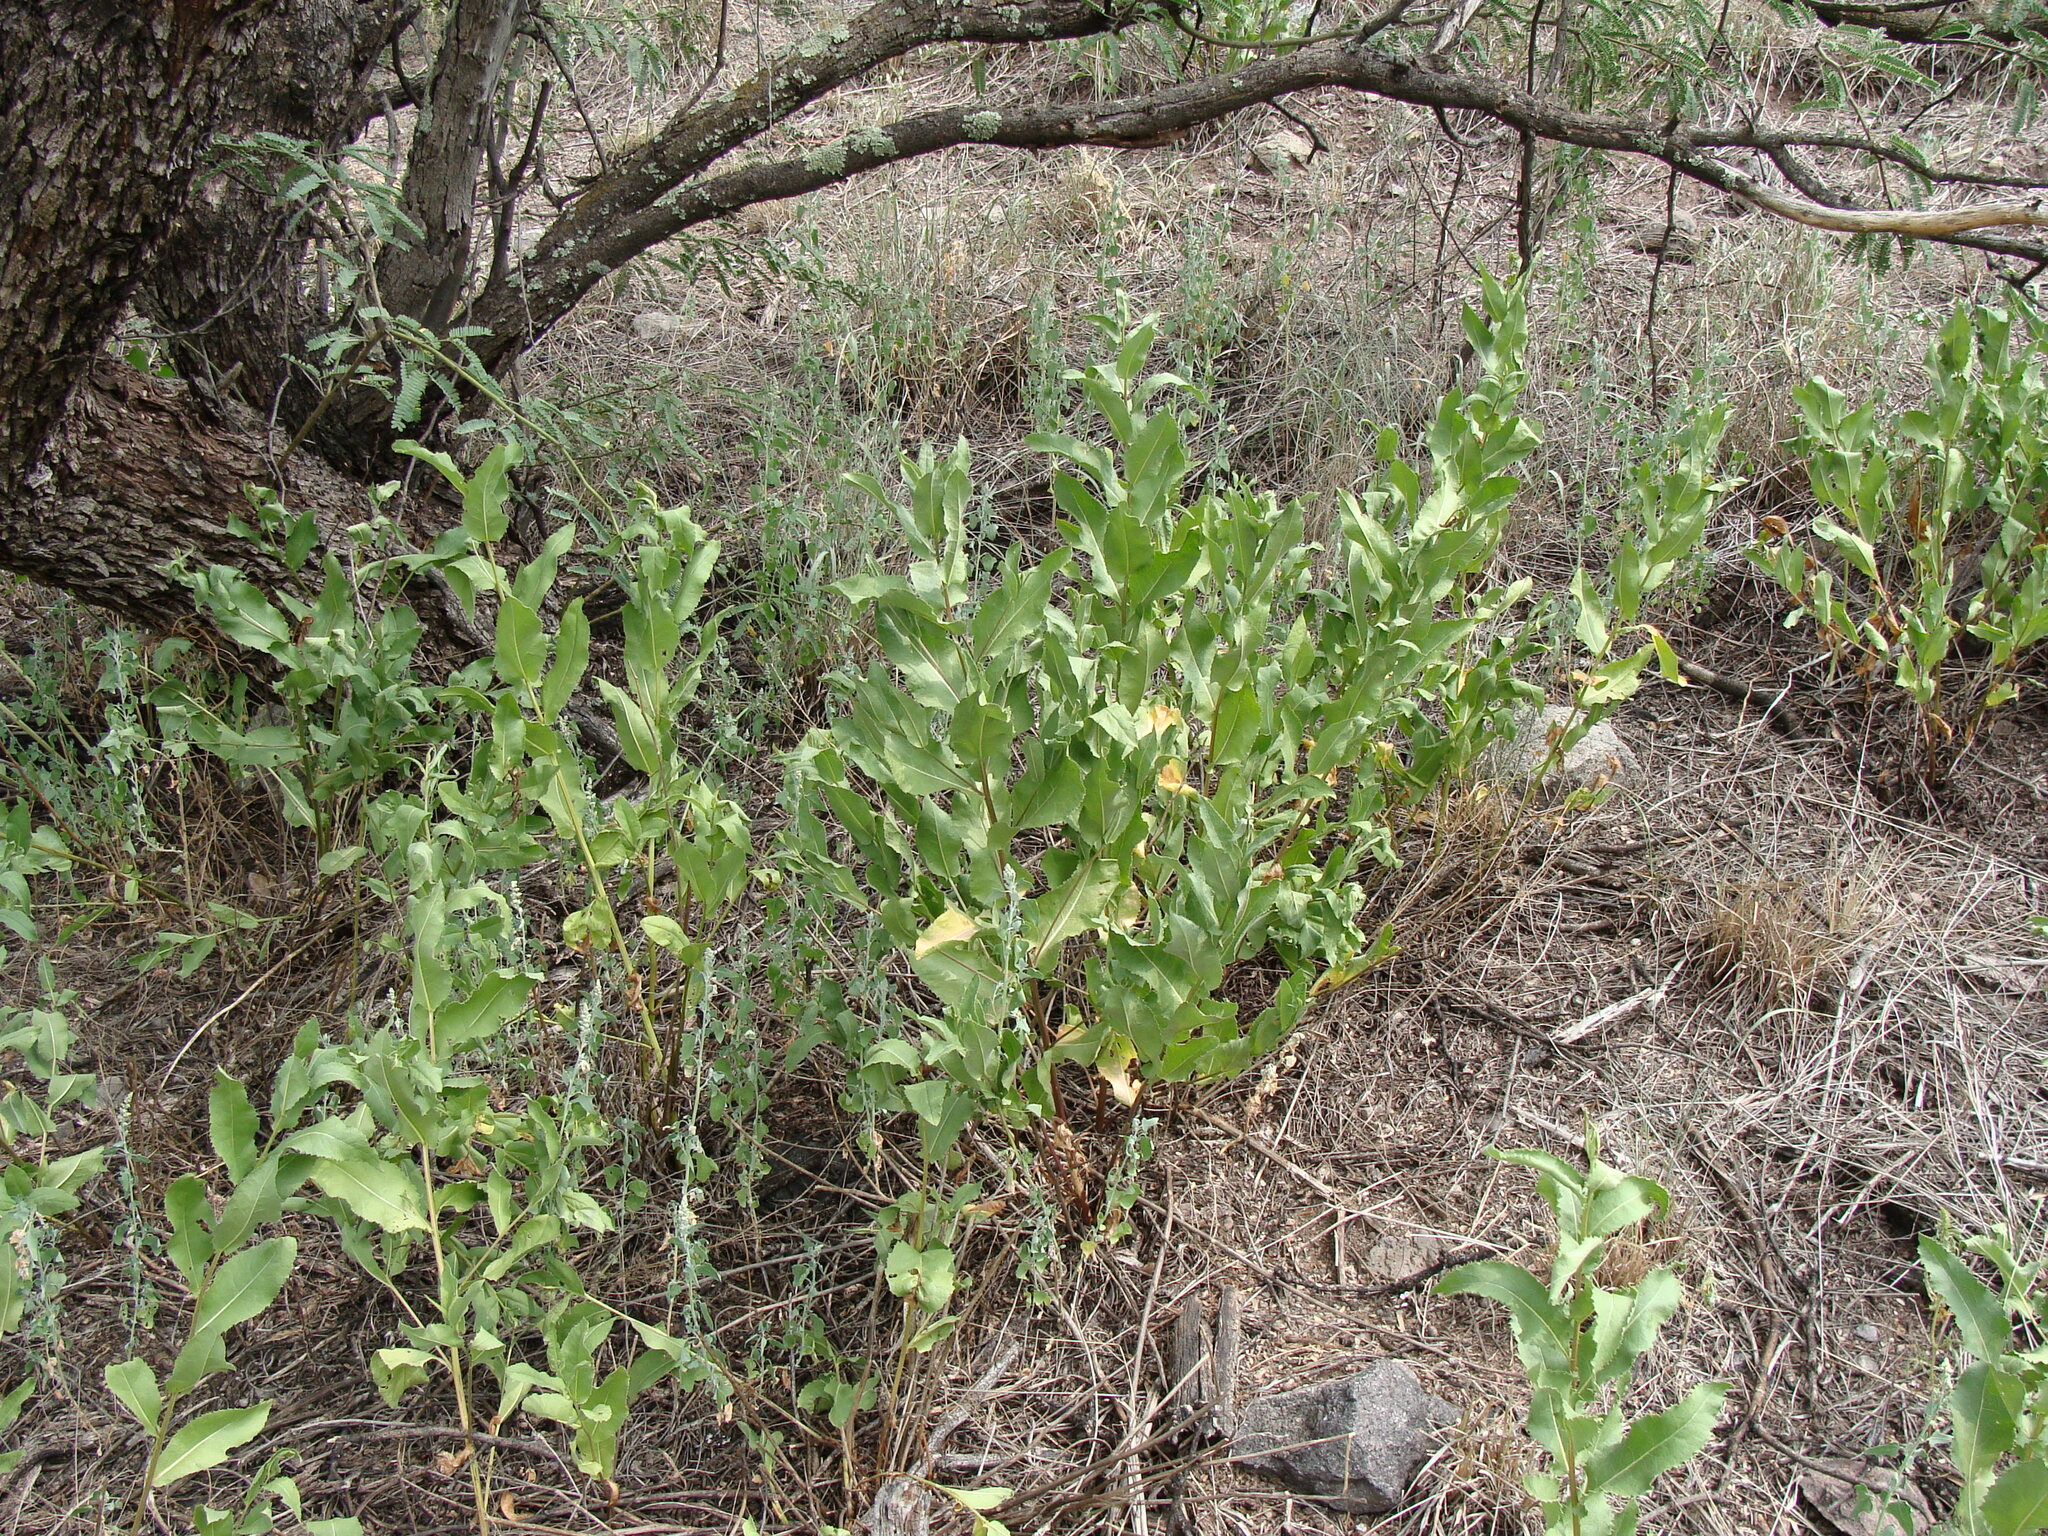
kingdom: Plantae
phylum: Tracheophyta
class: Magnoliopsida
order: Asterales
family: Asteraceae
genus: Acourtia
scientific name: Acourtia wrightii
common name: Brownfoot
